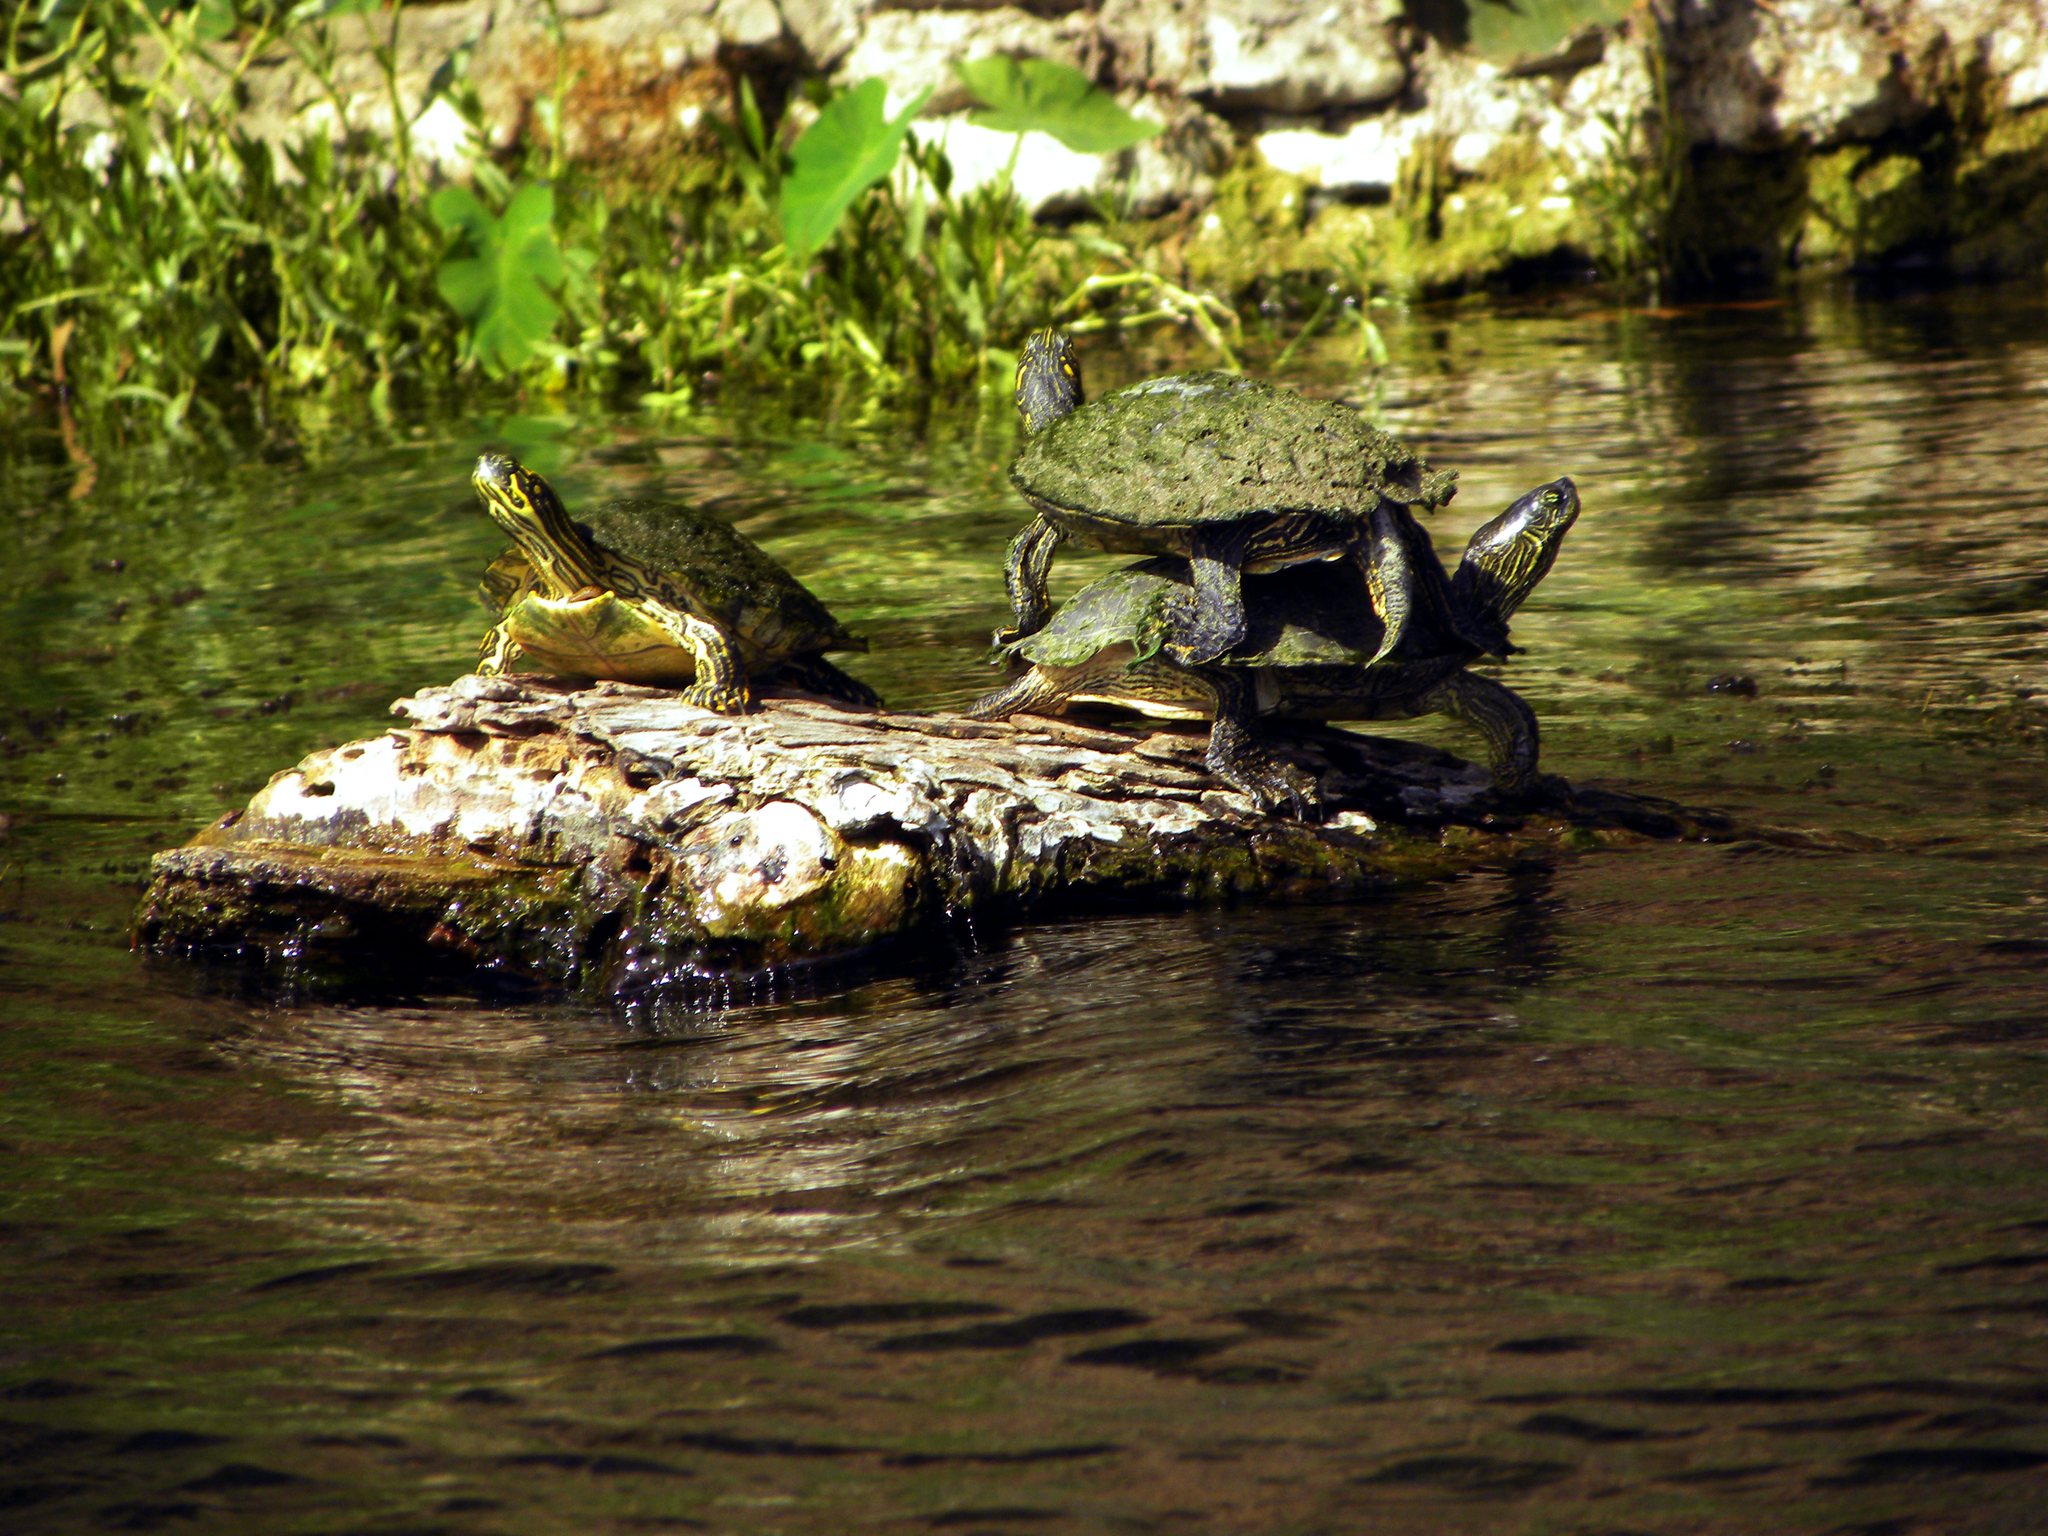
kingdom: Animalia
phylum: Chordata
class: Testudines
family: Emydidae
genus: Pseudemys
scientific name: Pseudemys texana
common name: Texas river cooter
